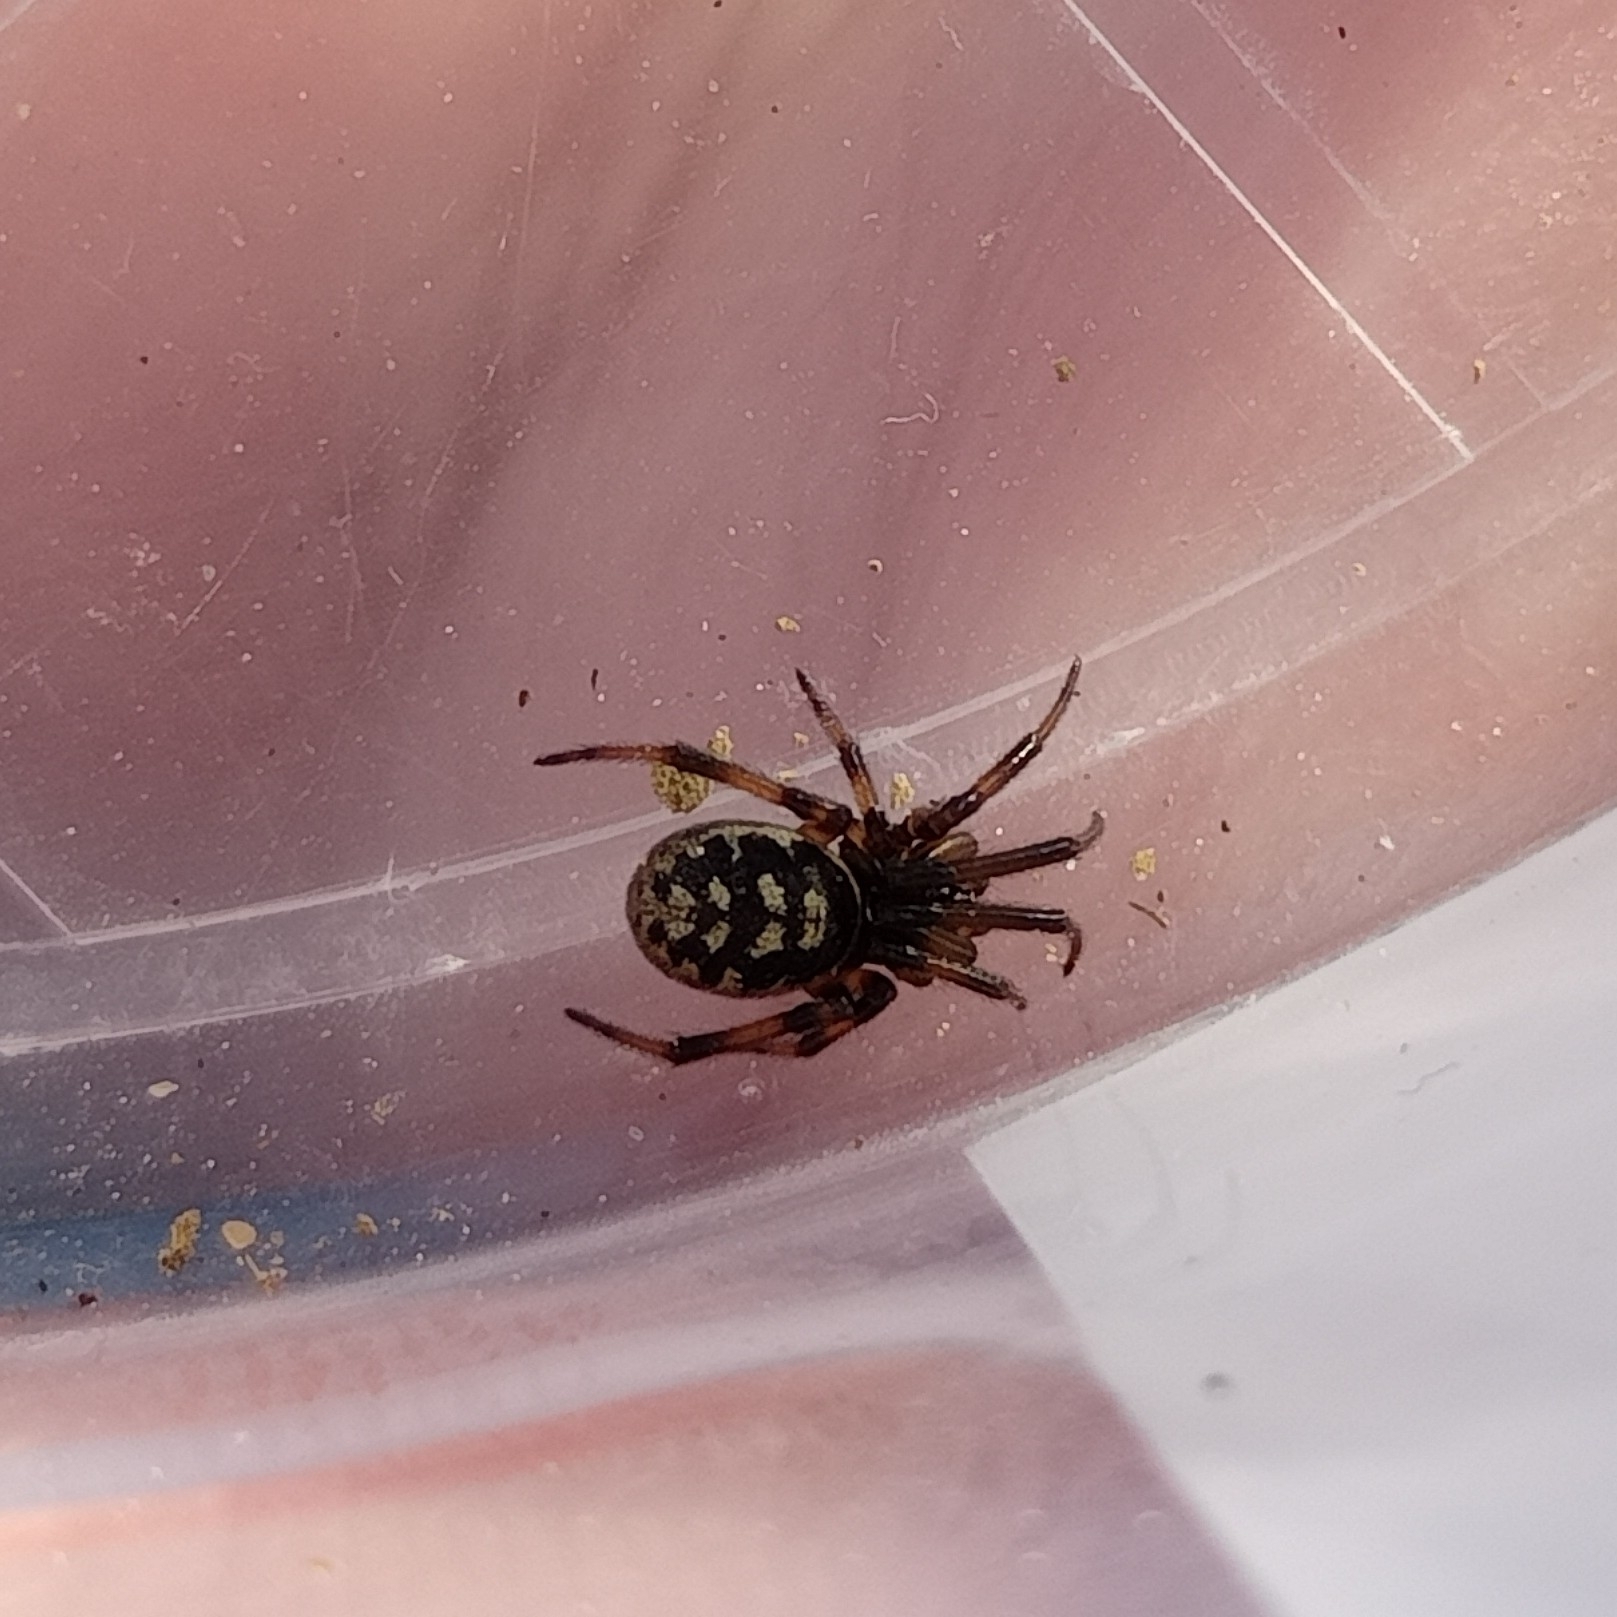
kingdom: Animalia
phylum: Arthropoda
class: Arachnida
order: Araneae
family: Theridiidae
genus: Steatoda
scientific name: Steatoda albomaculata
